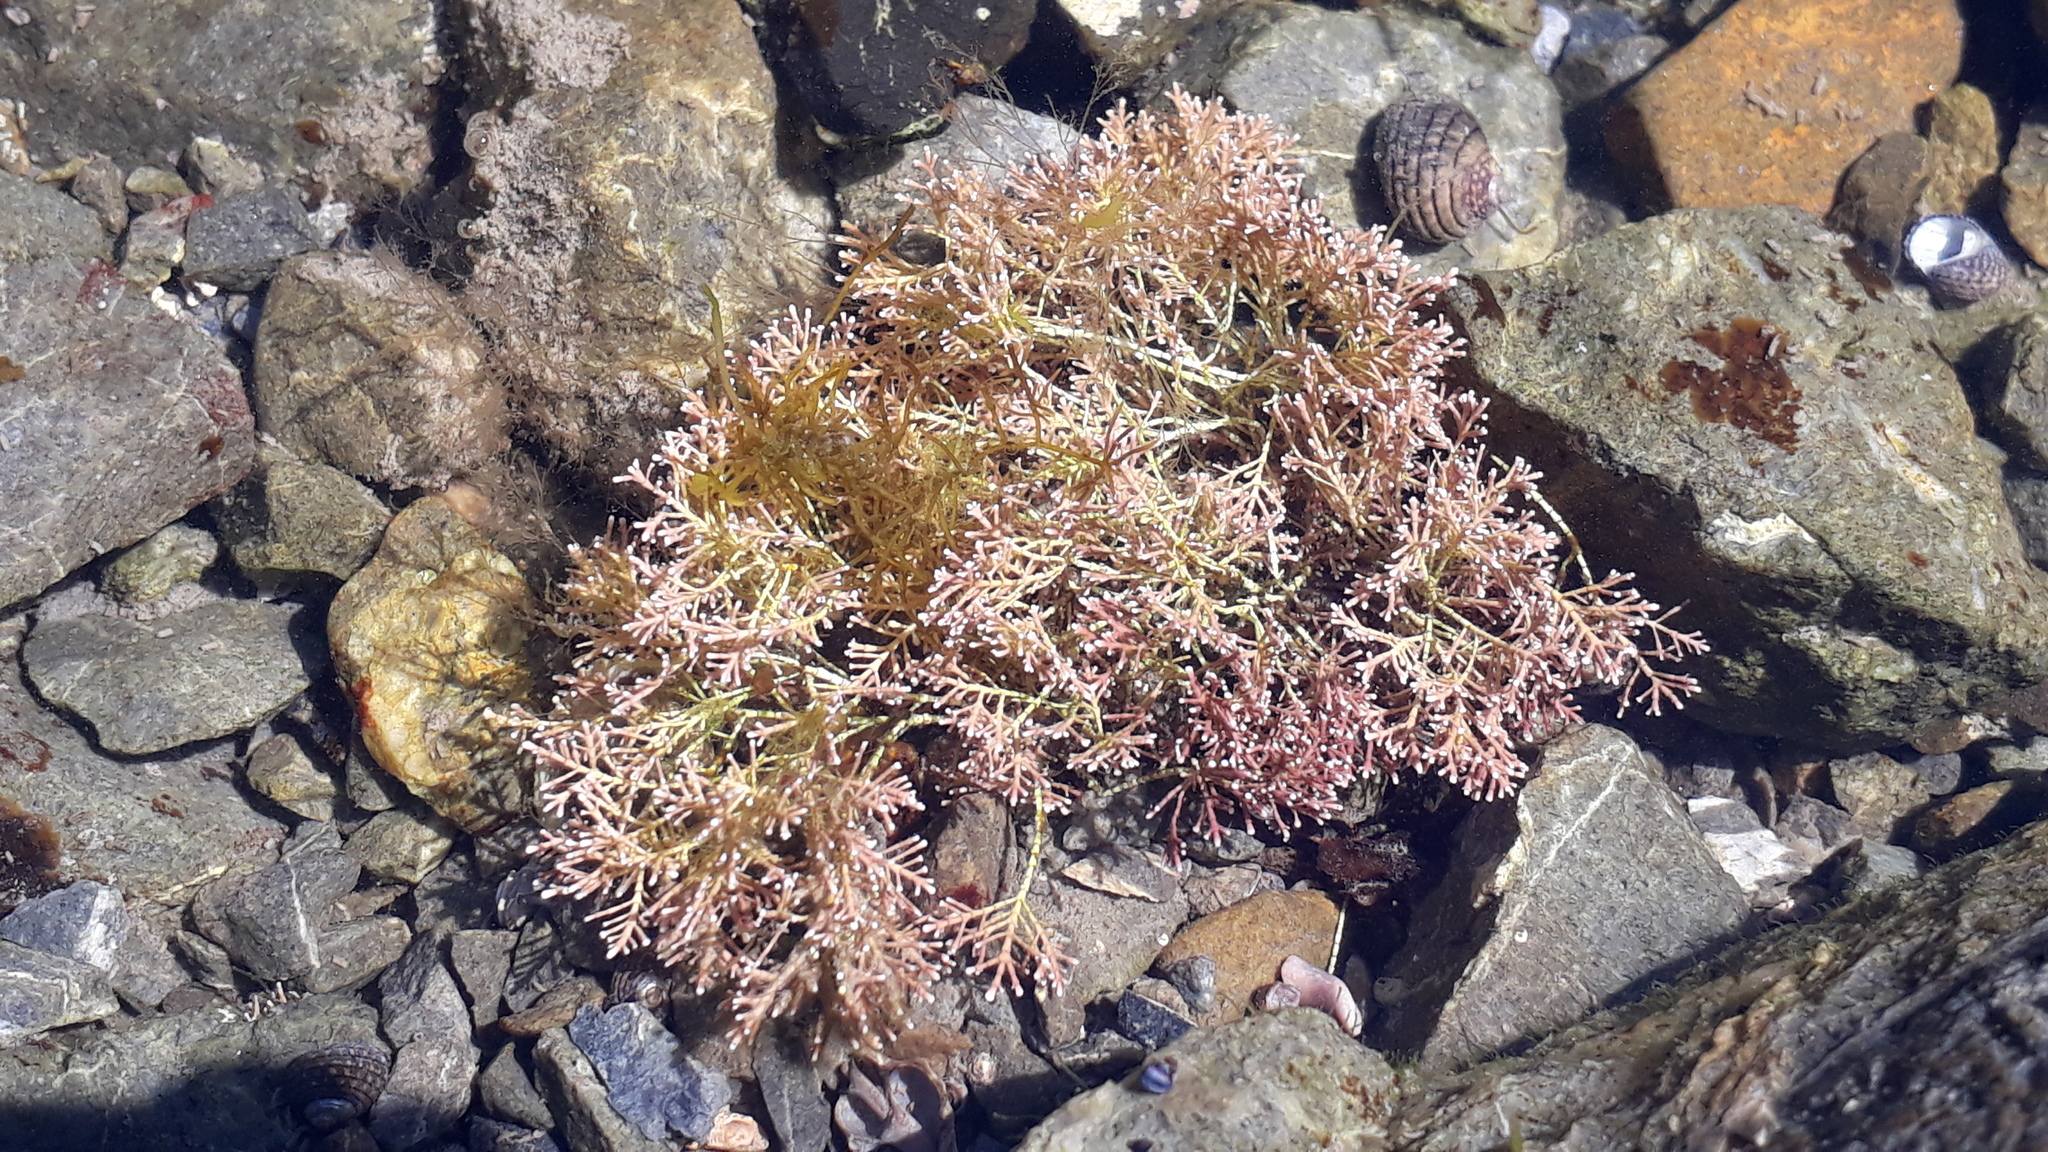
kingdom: Plantae
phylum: Rhodophyta
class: Florideophyceae
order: Corallinales
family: Corallinaceae
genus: Corallina
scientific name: Corallina officinalis
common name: Coral weed
